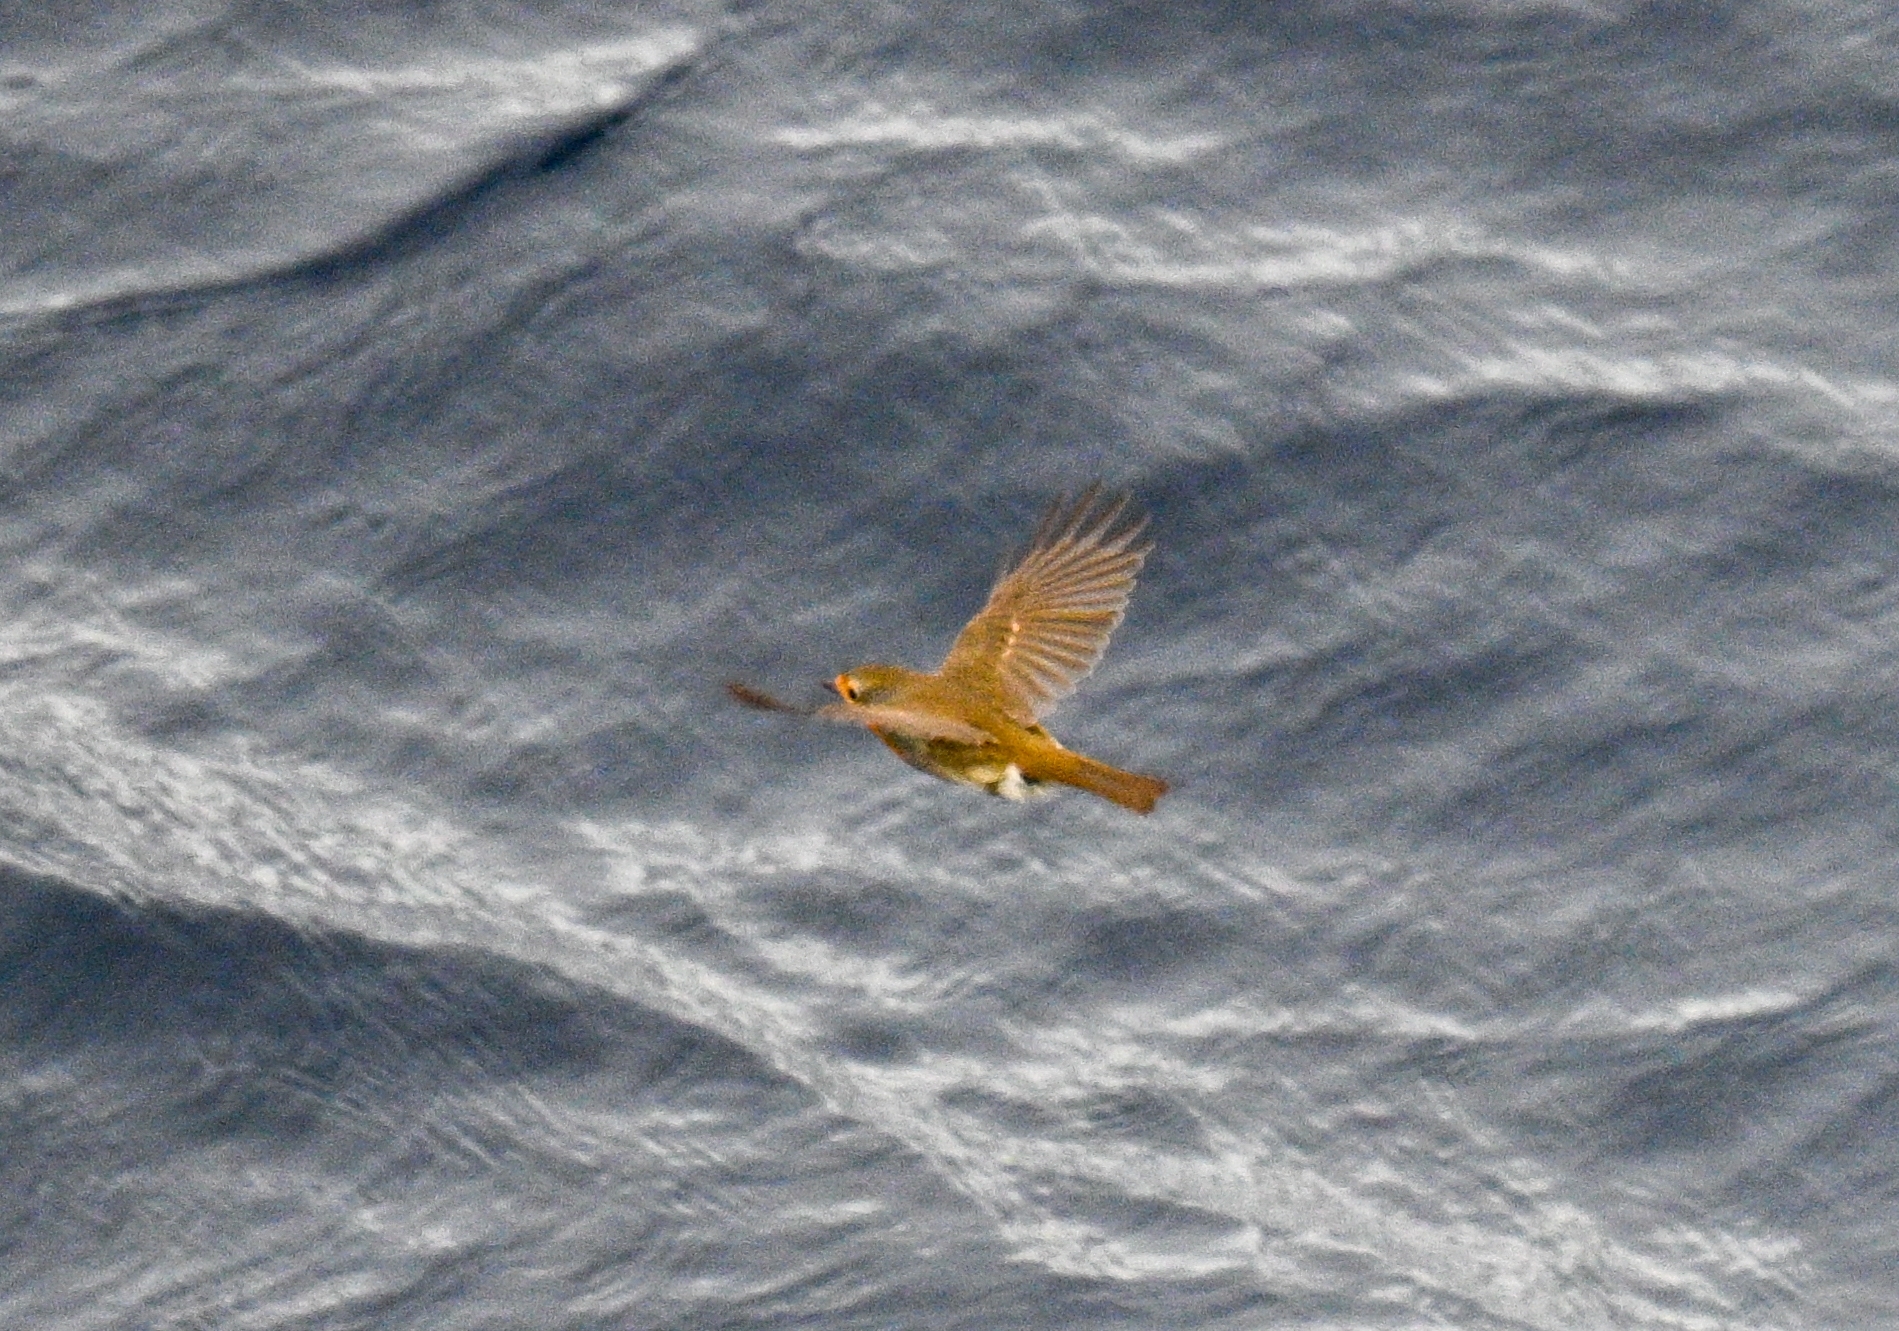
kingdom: Animalia
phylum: Chordata
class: Aves
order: Passeriformes
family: Muscicapidae
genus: Erithacus
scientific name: Erithacus rubecula
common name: European robin
